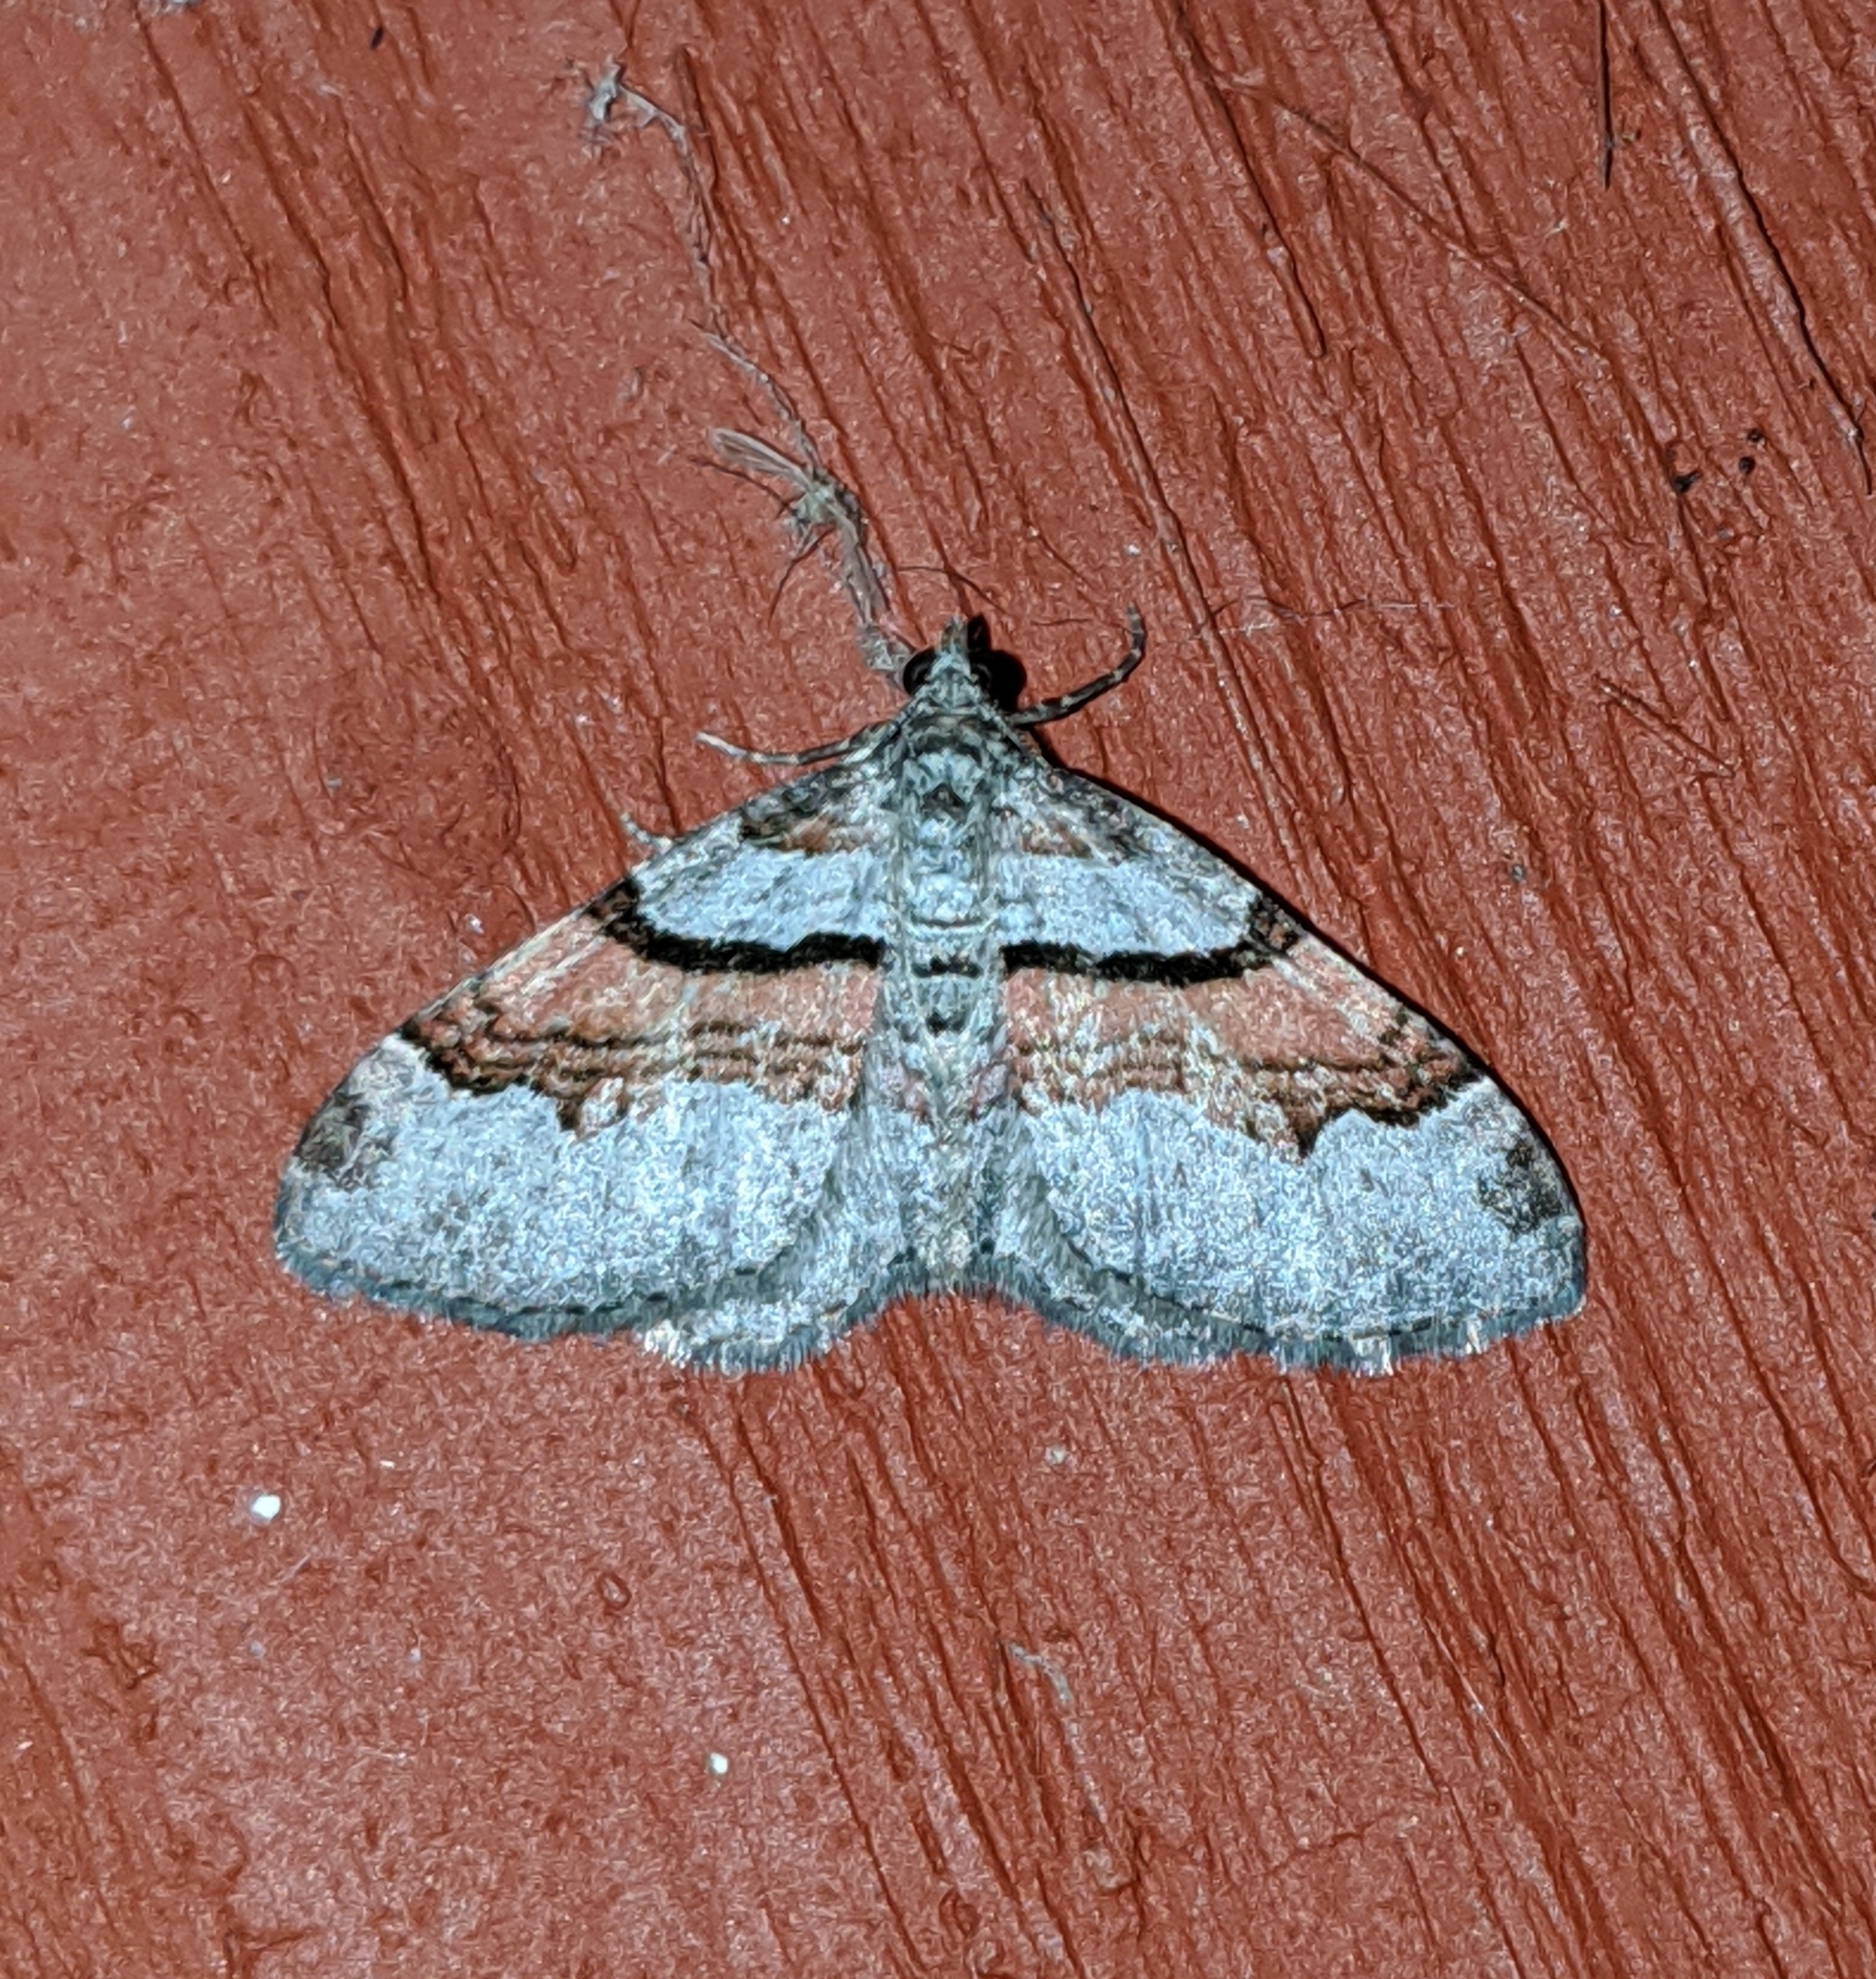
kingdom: Animalia
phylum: Arthropoda
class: Insecta
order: Lepidoptera
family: Geometridae
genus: Xanthorhoe
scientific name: Xanthorhoe labradorensis
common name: Labrador carpet
